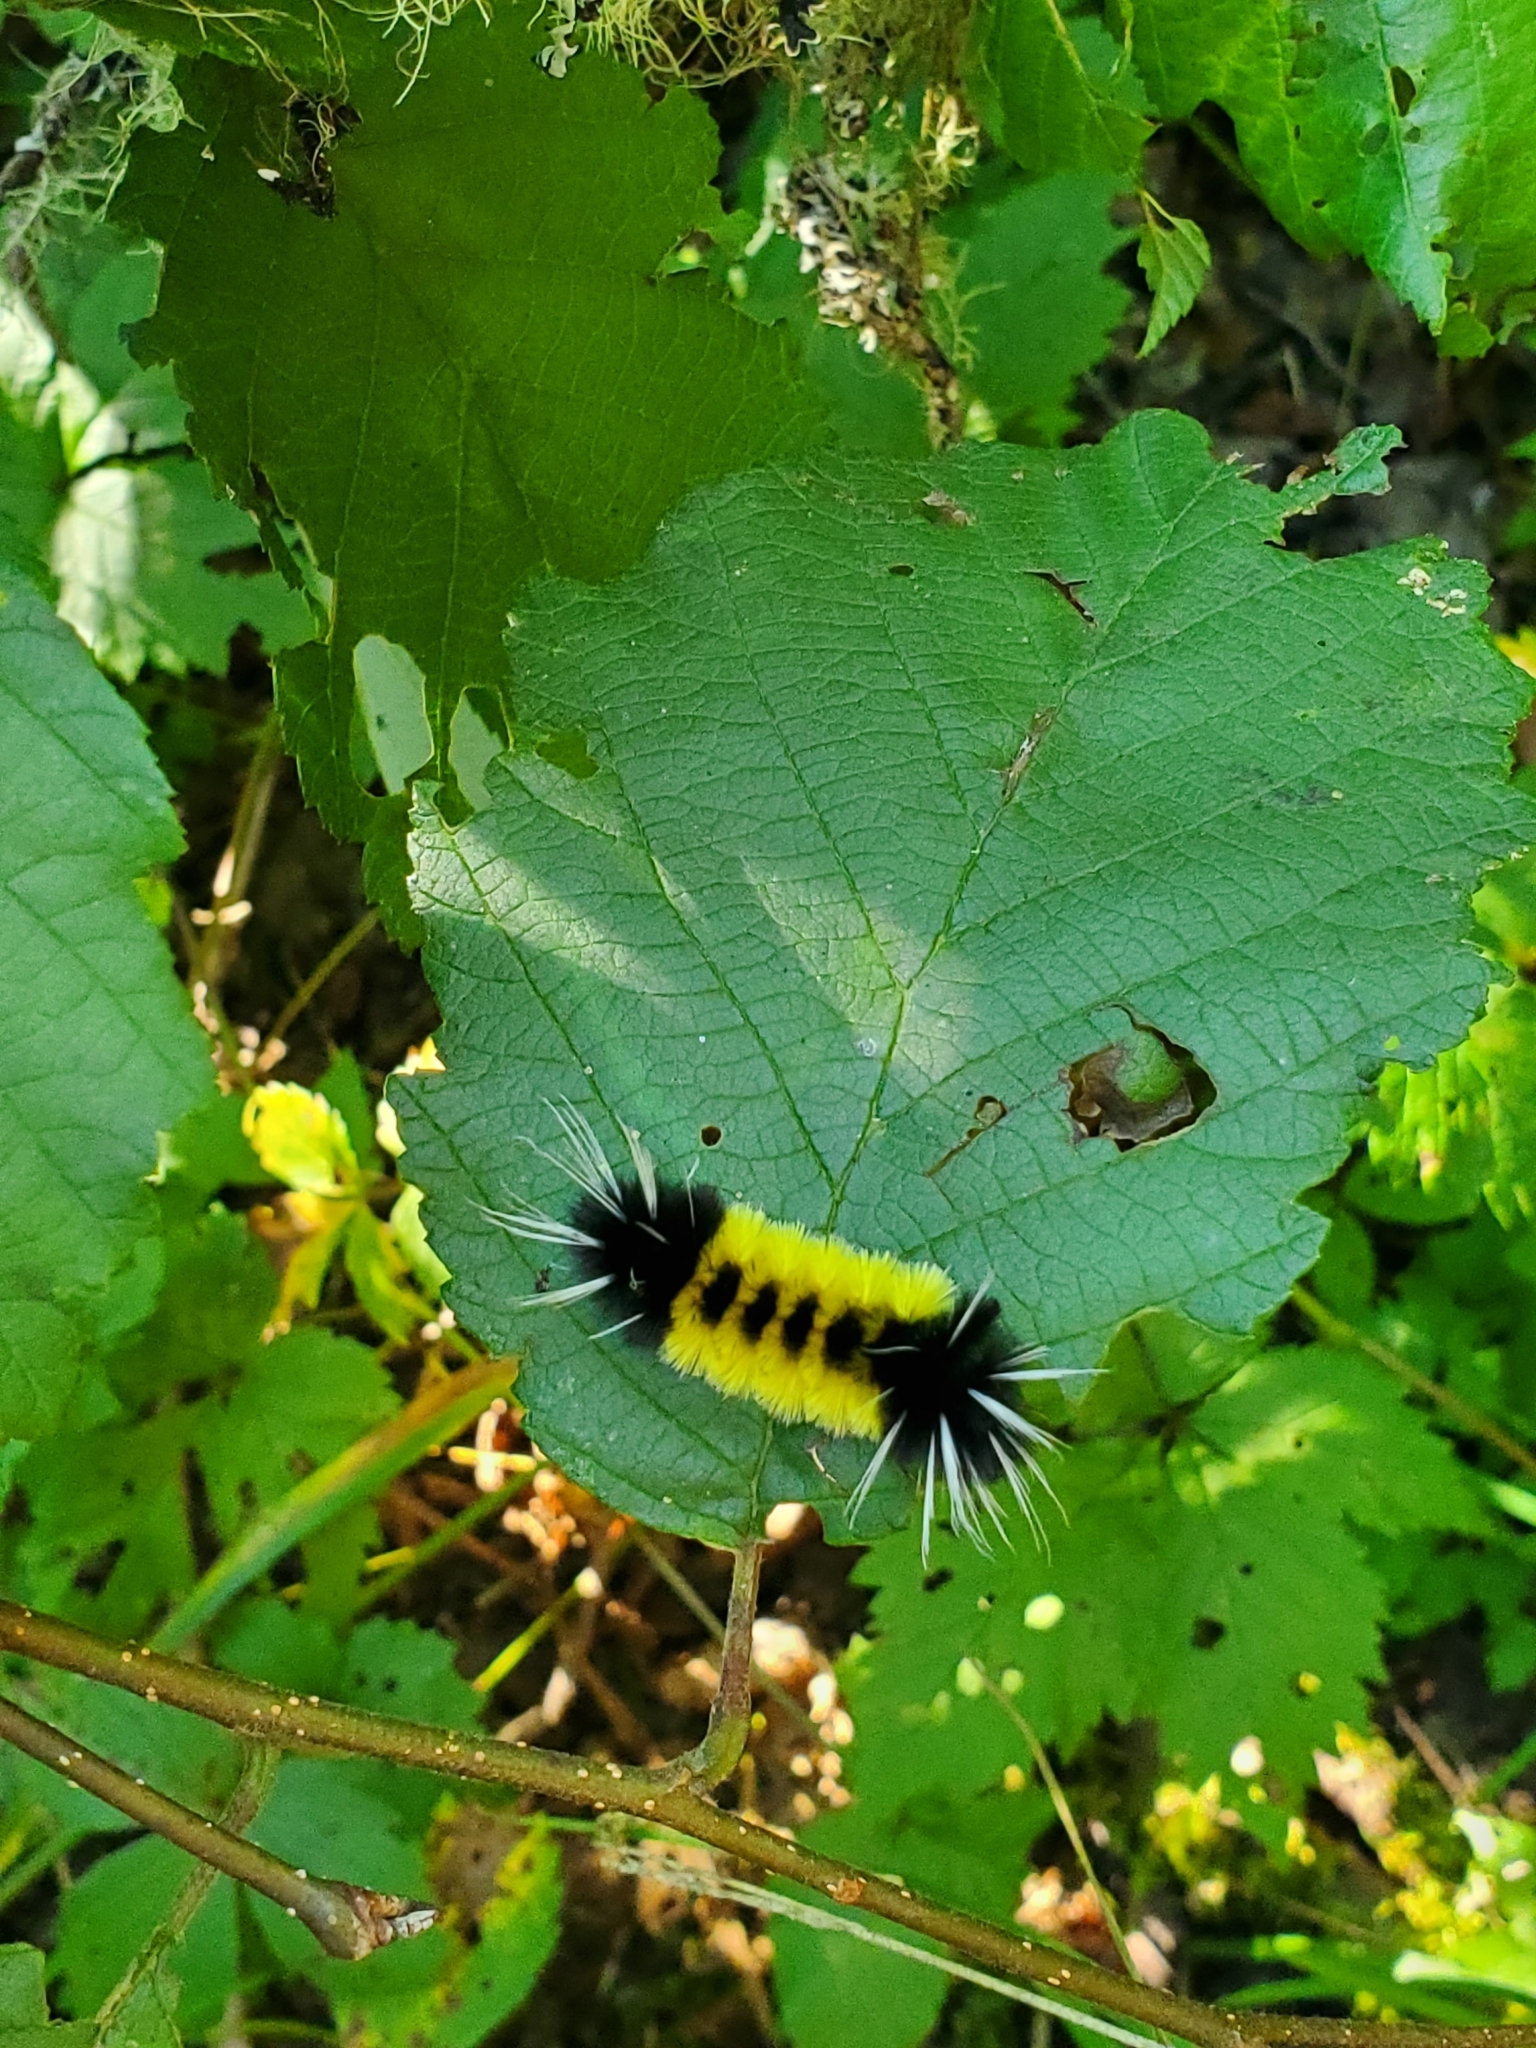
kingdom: Animalia
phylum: Arthropoda
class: Insecta
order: Lepidoptera
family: Erebidae
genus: Lophocampa
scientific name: Lophocampa maculata
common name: Spotted tussock moth
